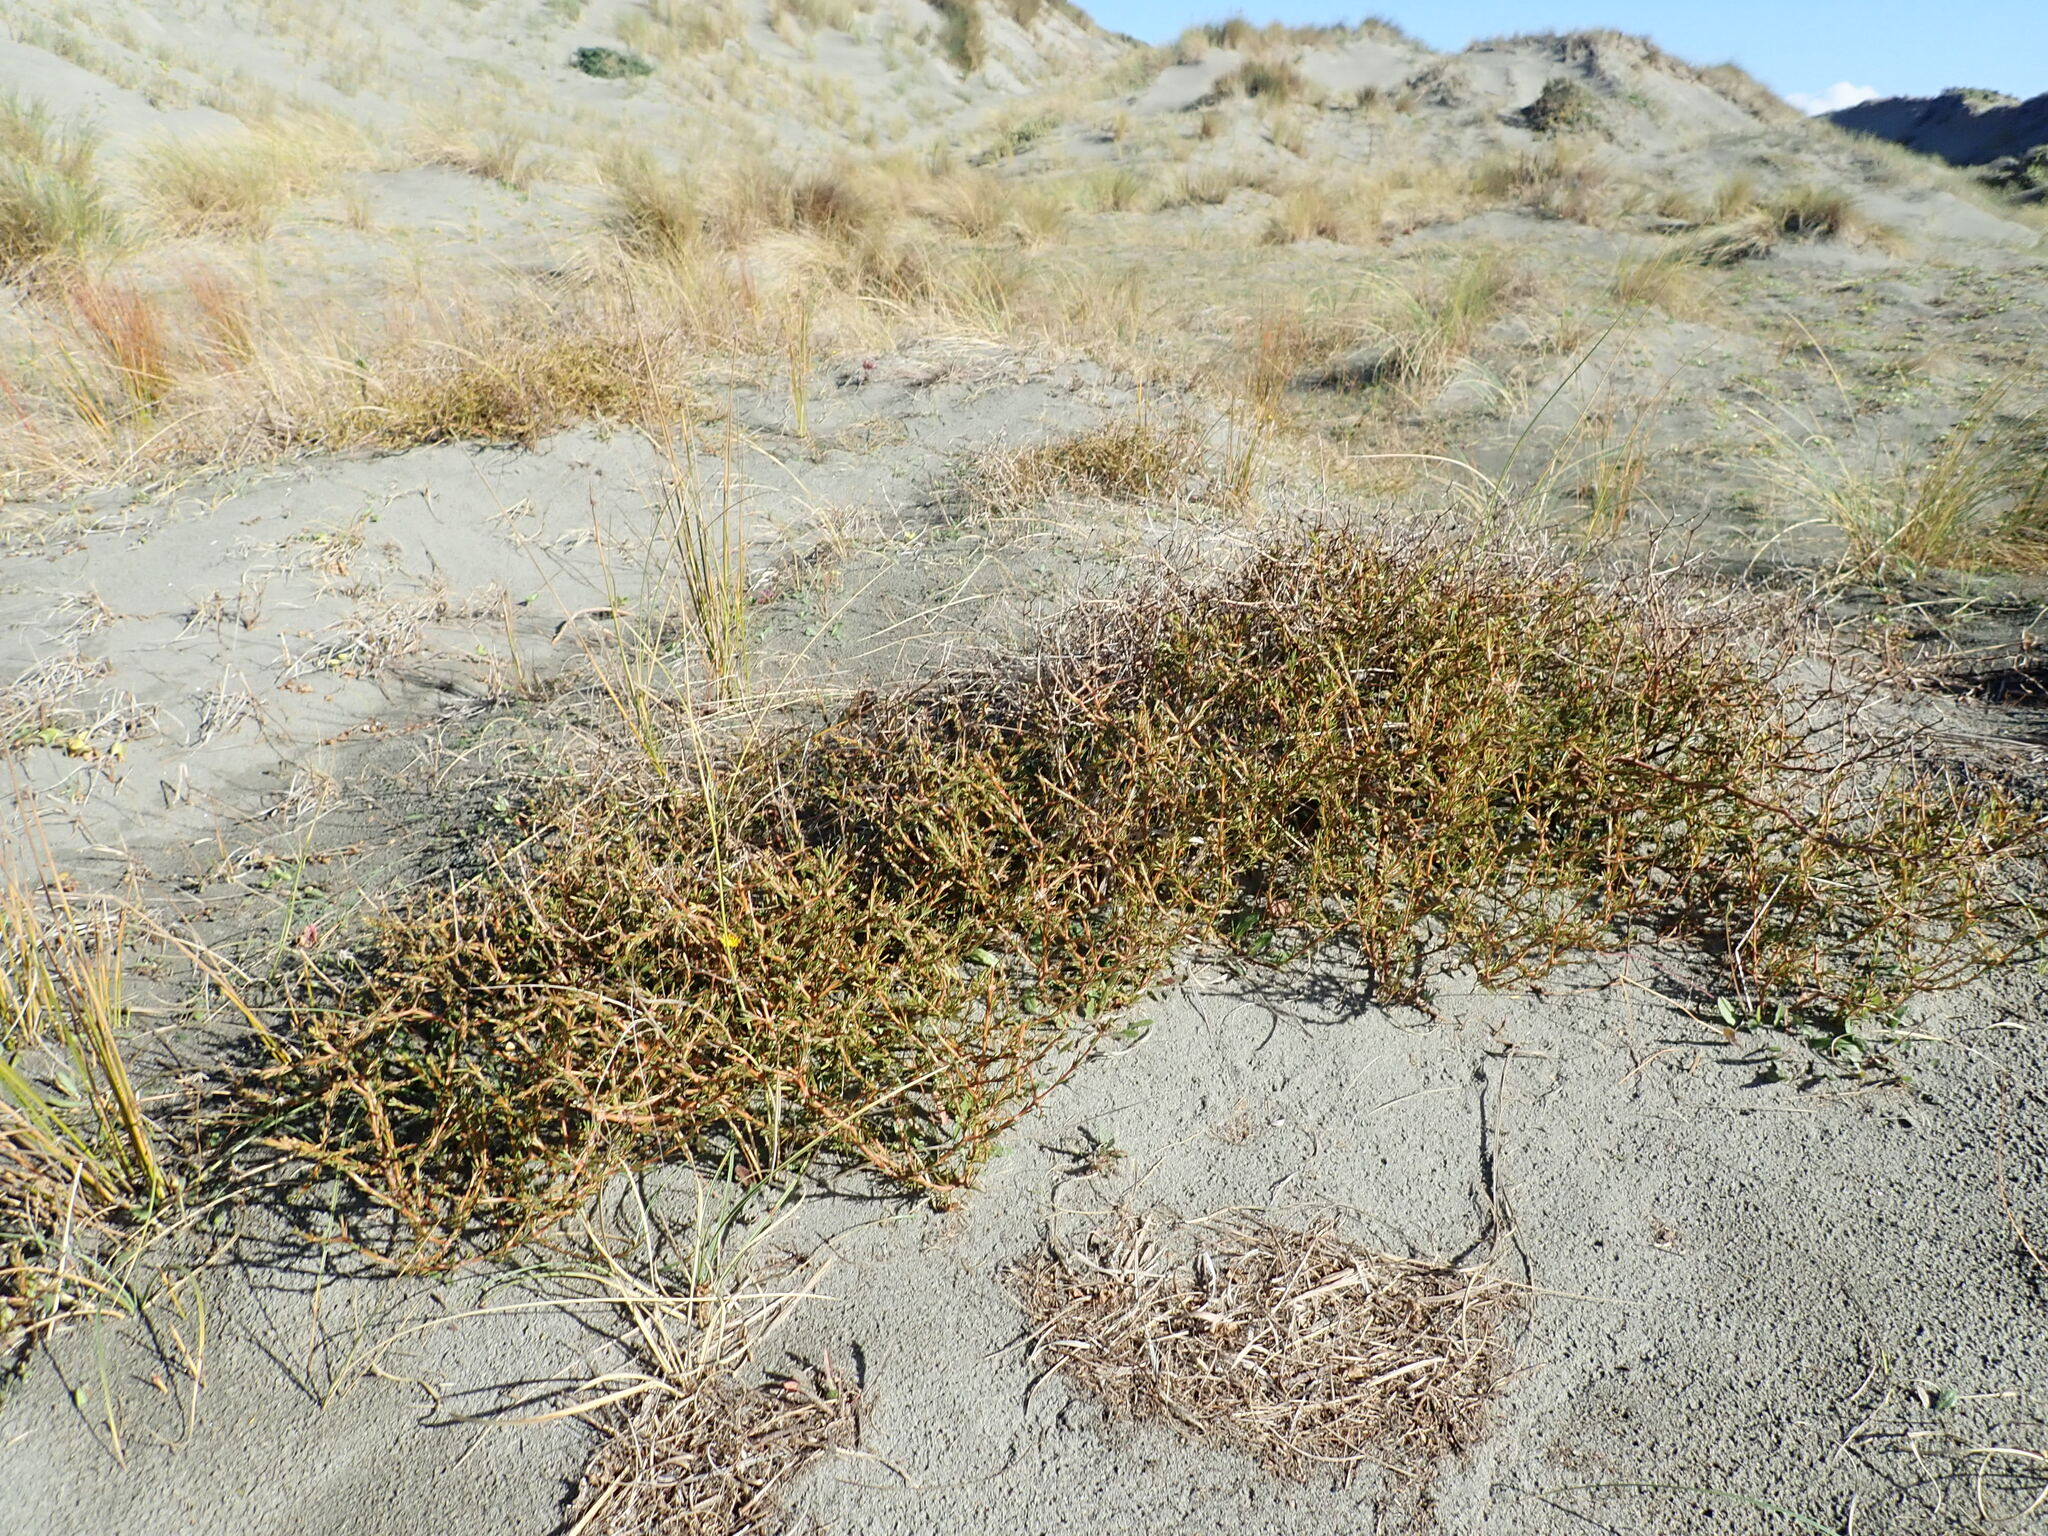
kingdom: Plantae
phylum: Tracheophyta
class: Magnoliopsida
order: Gentianales
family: Rubiaceae
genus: Coprosma
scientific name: Coprosma acerosa
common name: Sand coprosma
